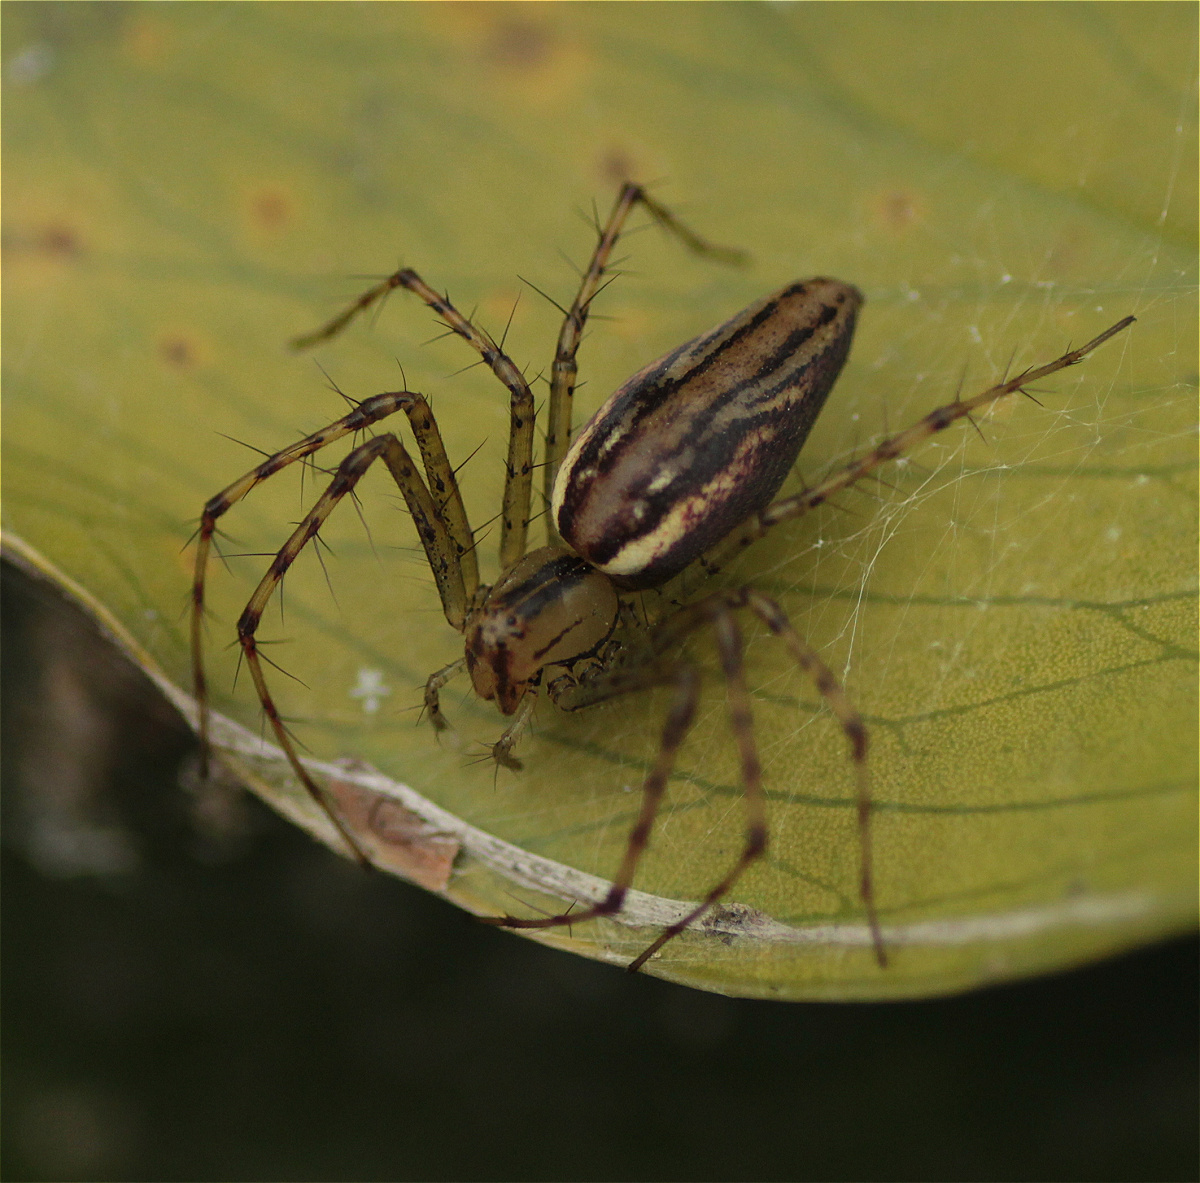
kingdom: Animalia
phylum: Arthropoda
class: Arachnida
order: Araneae
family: Oxyopidae
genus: Peucetia
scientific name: Peucetia rubrolineata
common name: Lynx spiders
